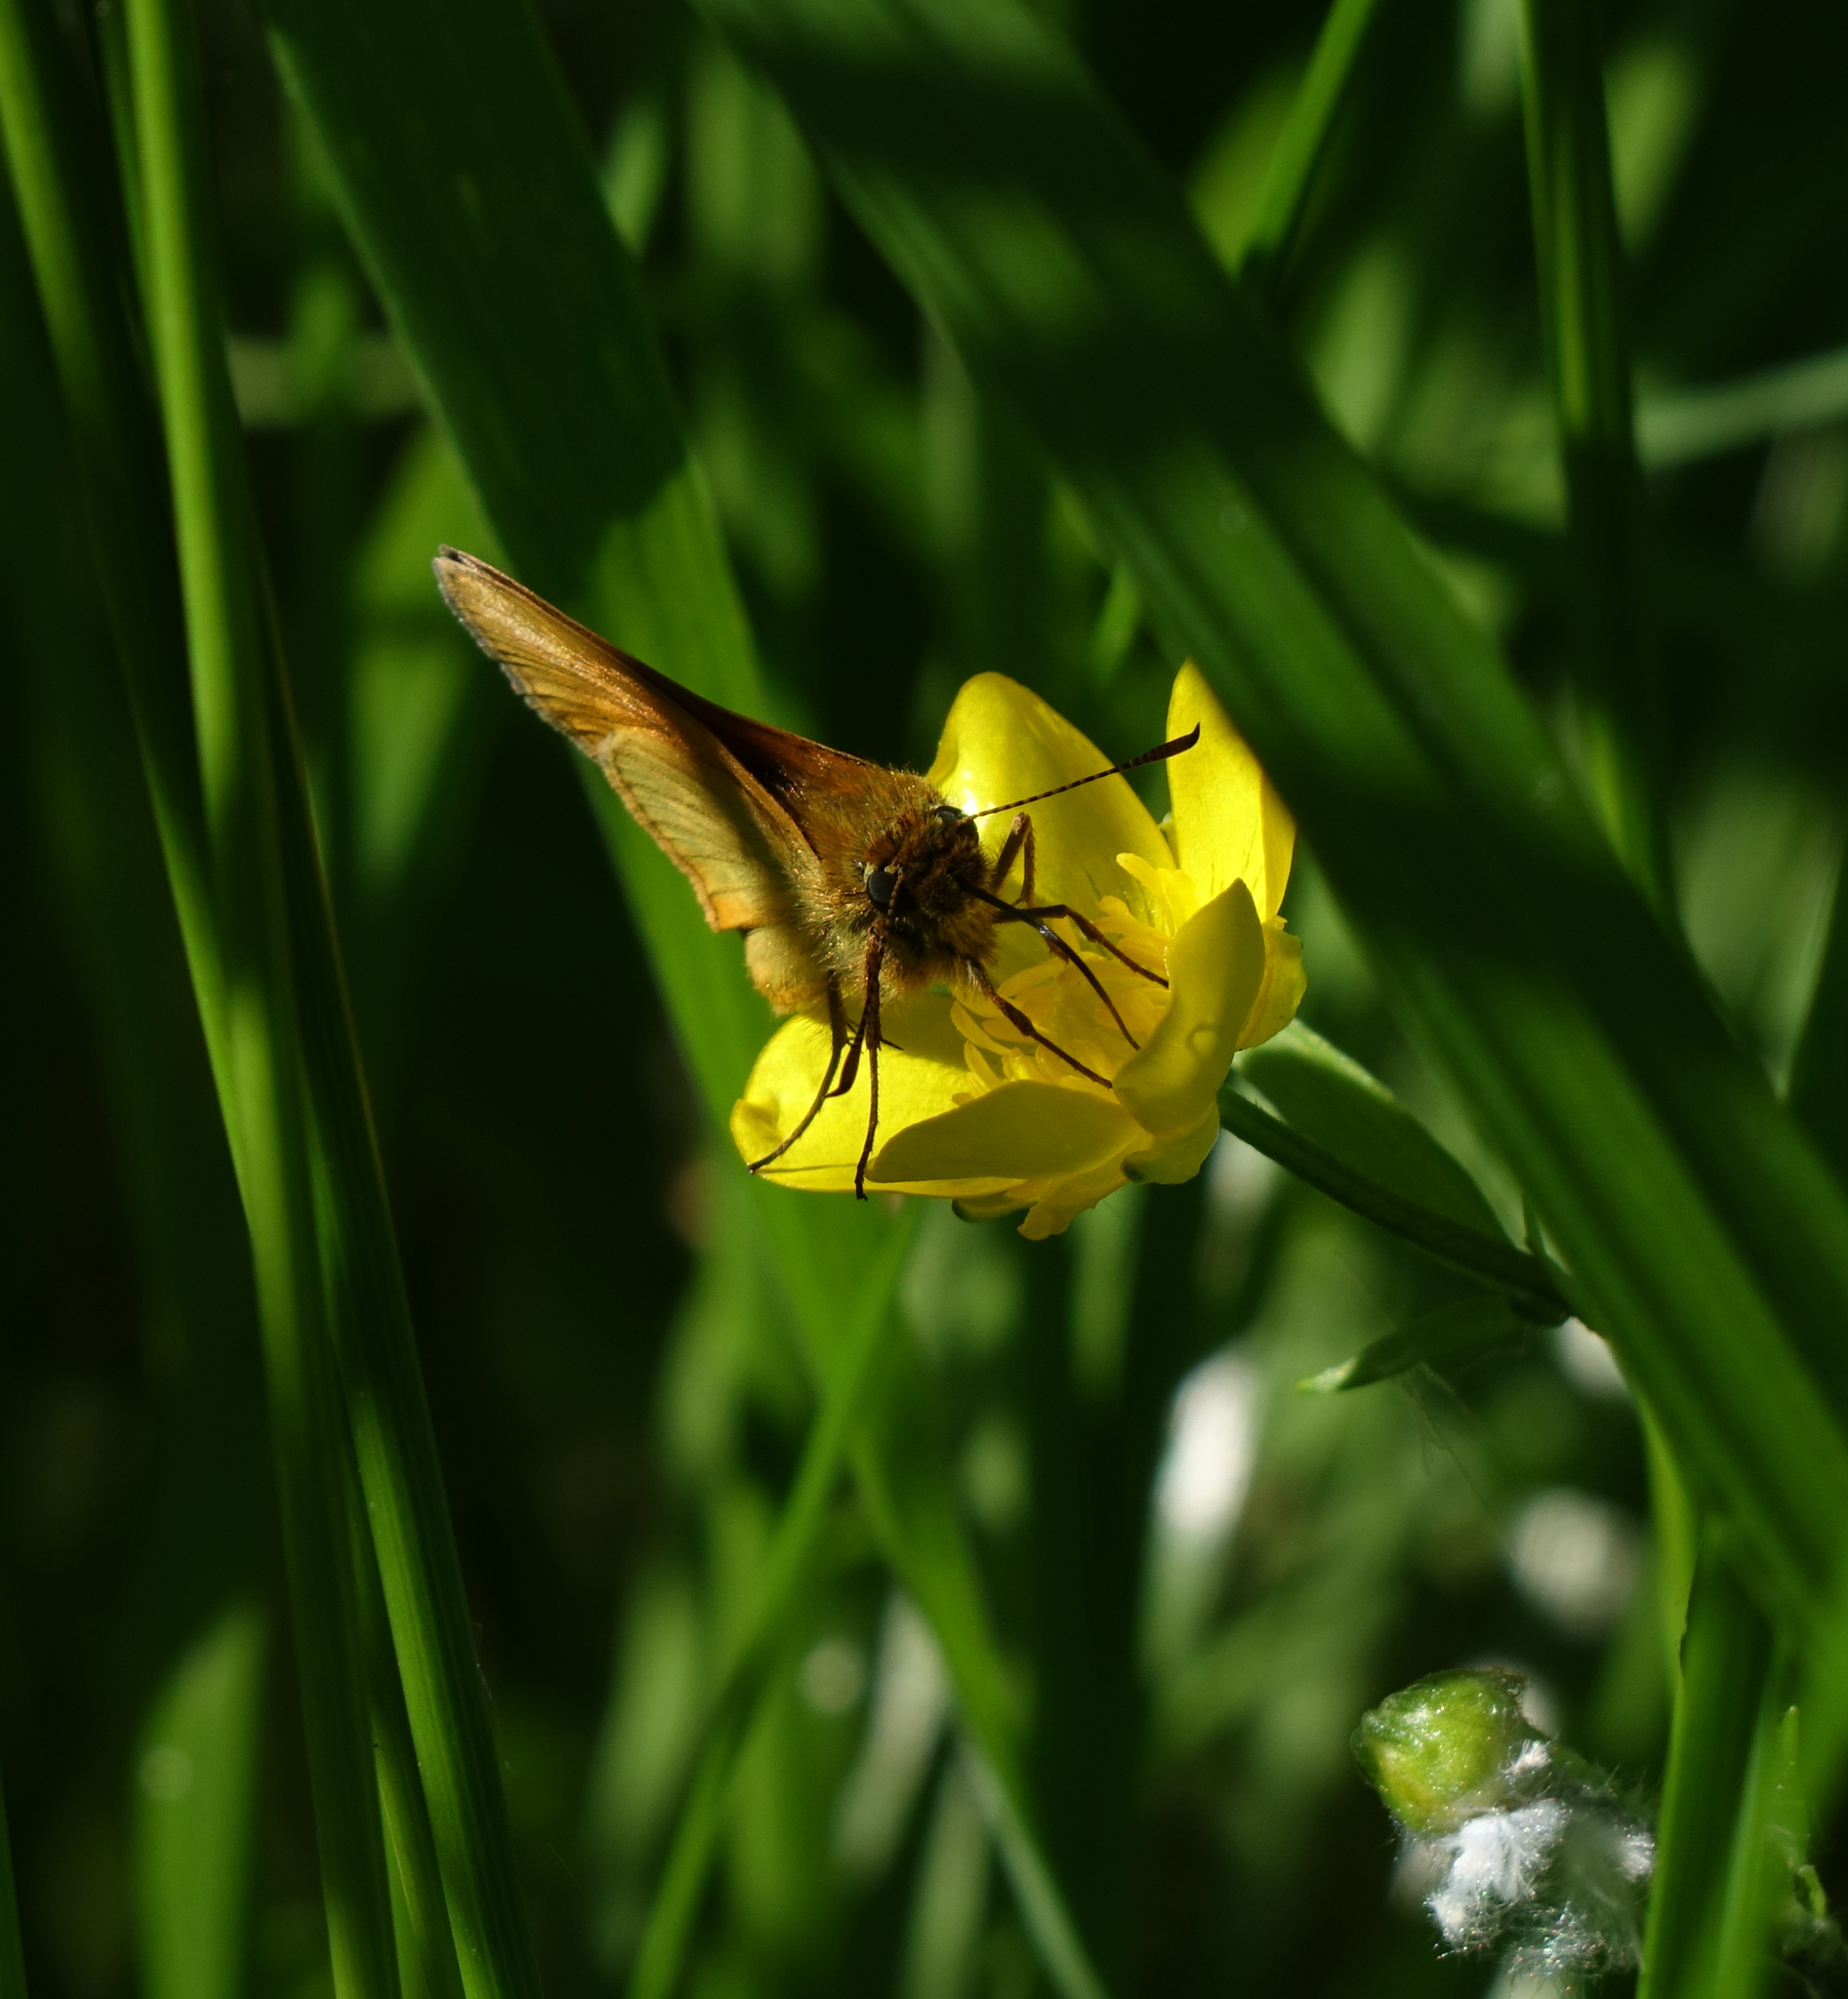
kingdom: Animalia
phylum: Arthropoda
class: Insecta
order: Lepidoptera
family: Hesperiidae
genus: Ochlodes
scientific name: Ochlodes venata
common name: Large skipper
